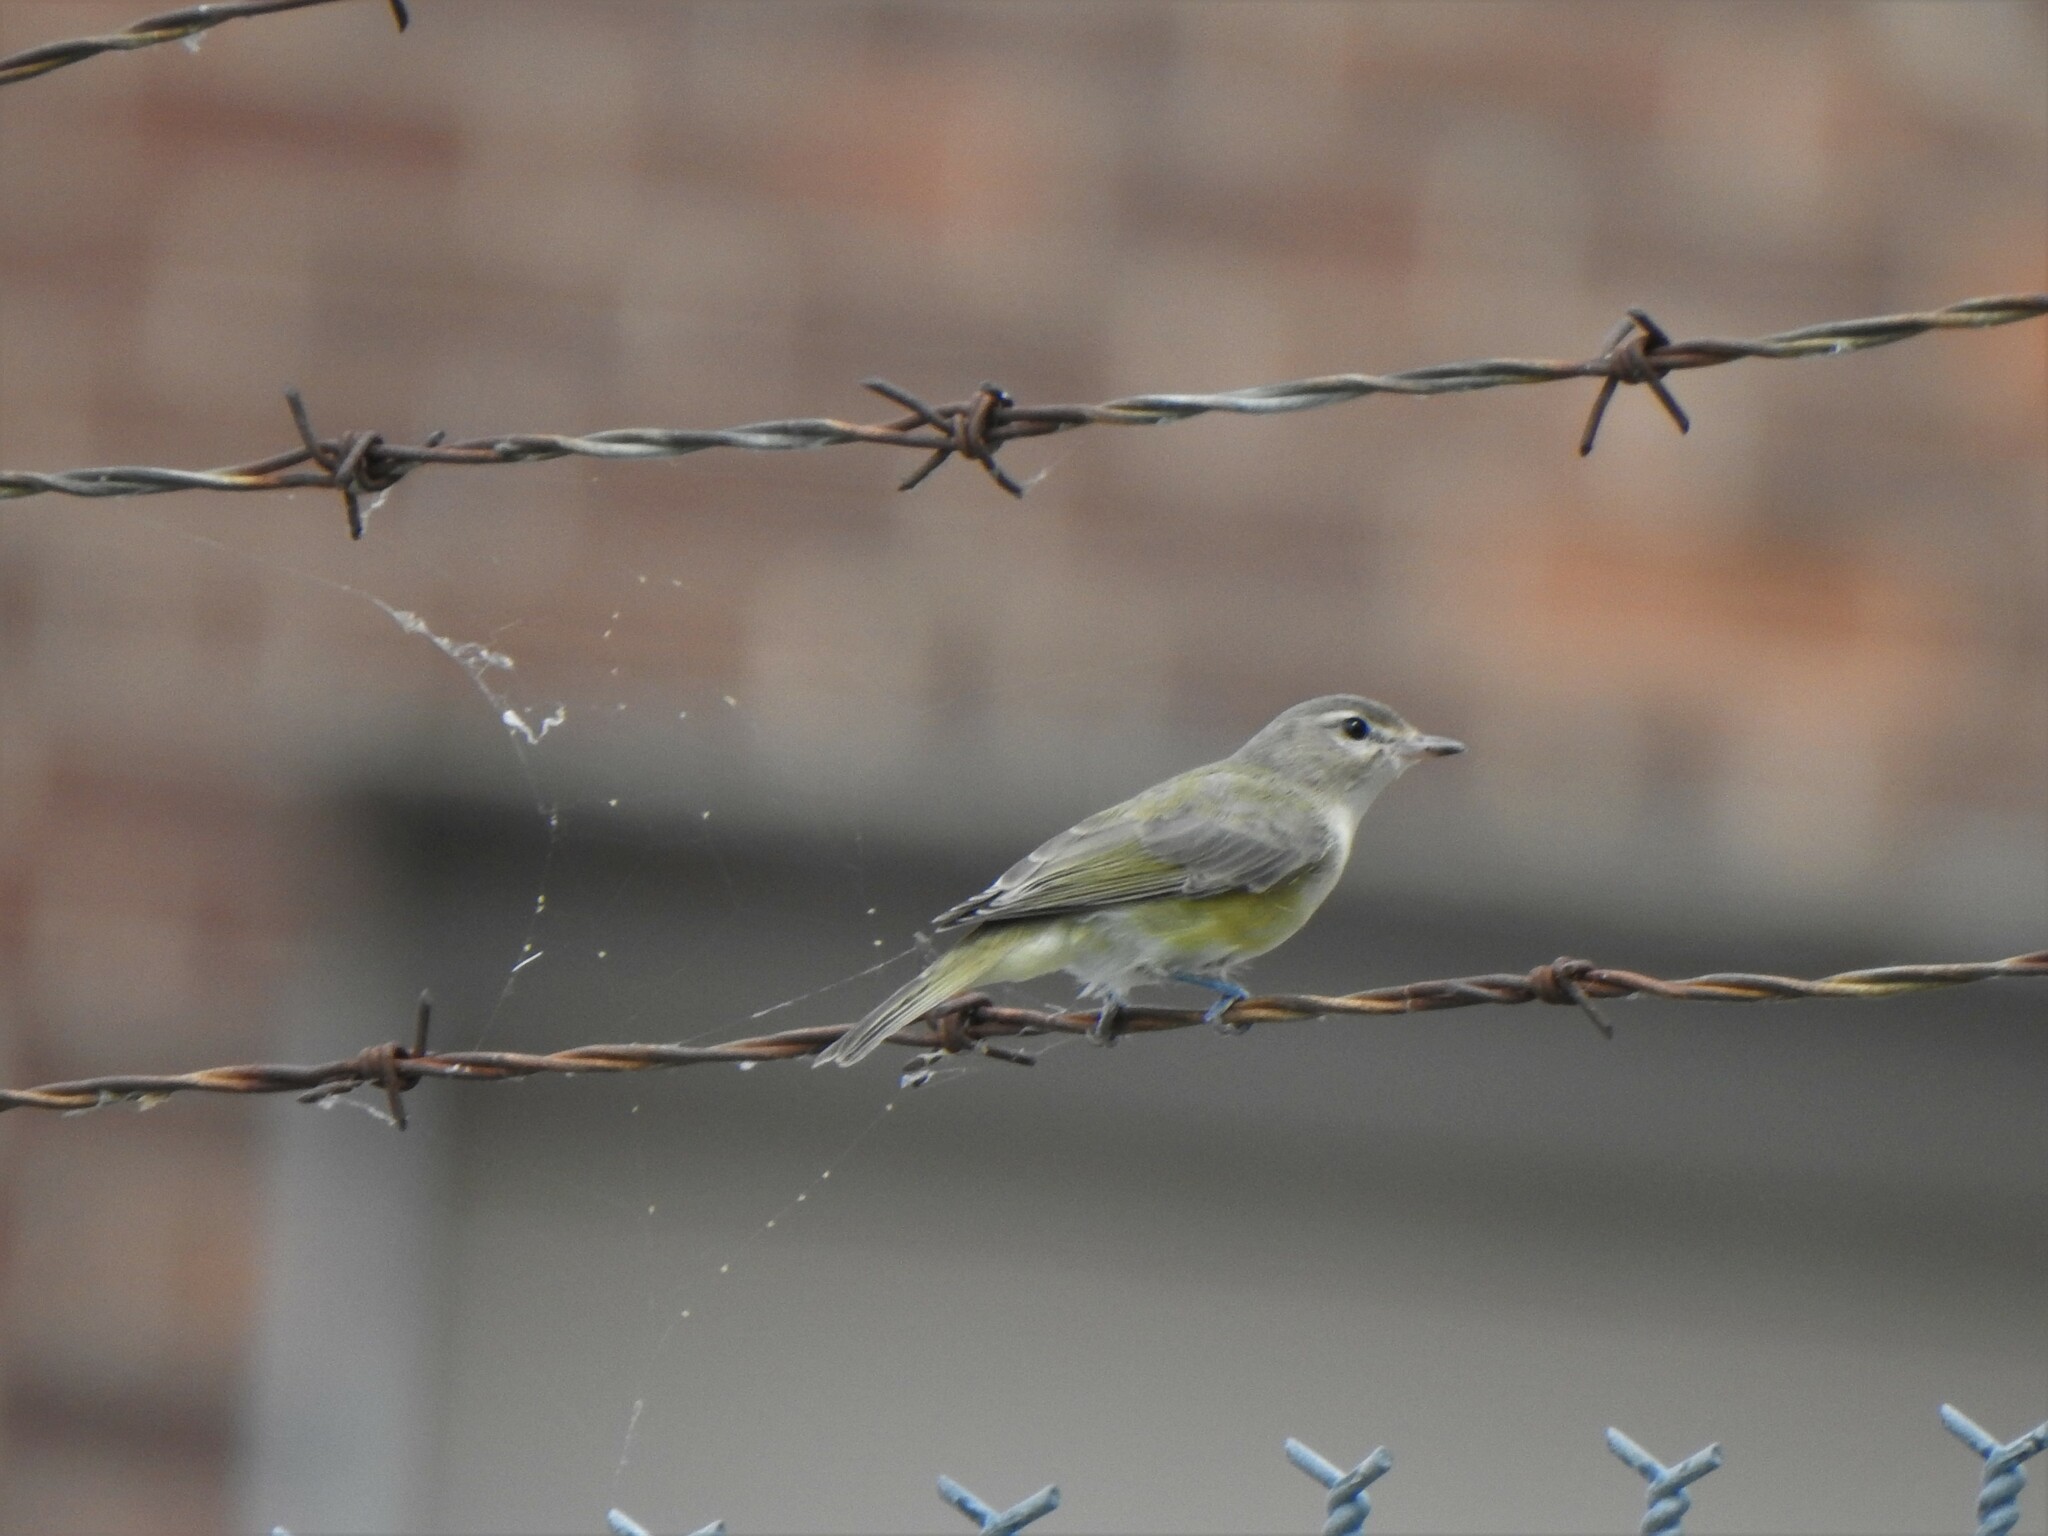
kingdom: Animalia
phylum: Chordata
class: Aves
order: Passeriformes
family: Vireonidae
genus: Vireo
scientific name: Vireo gilvus
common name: Warbling vireo
